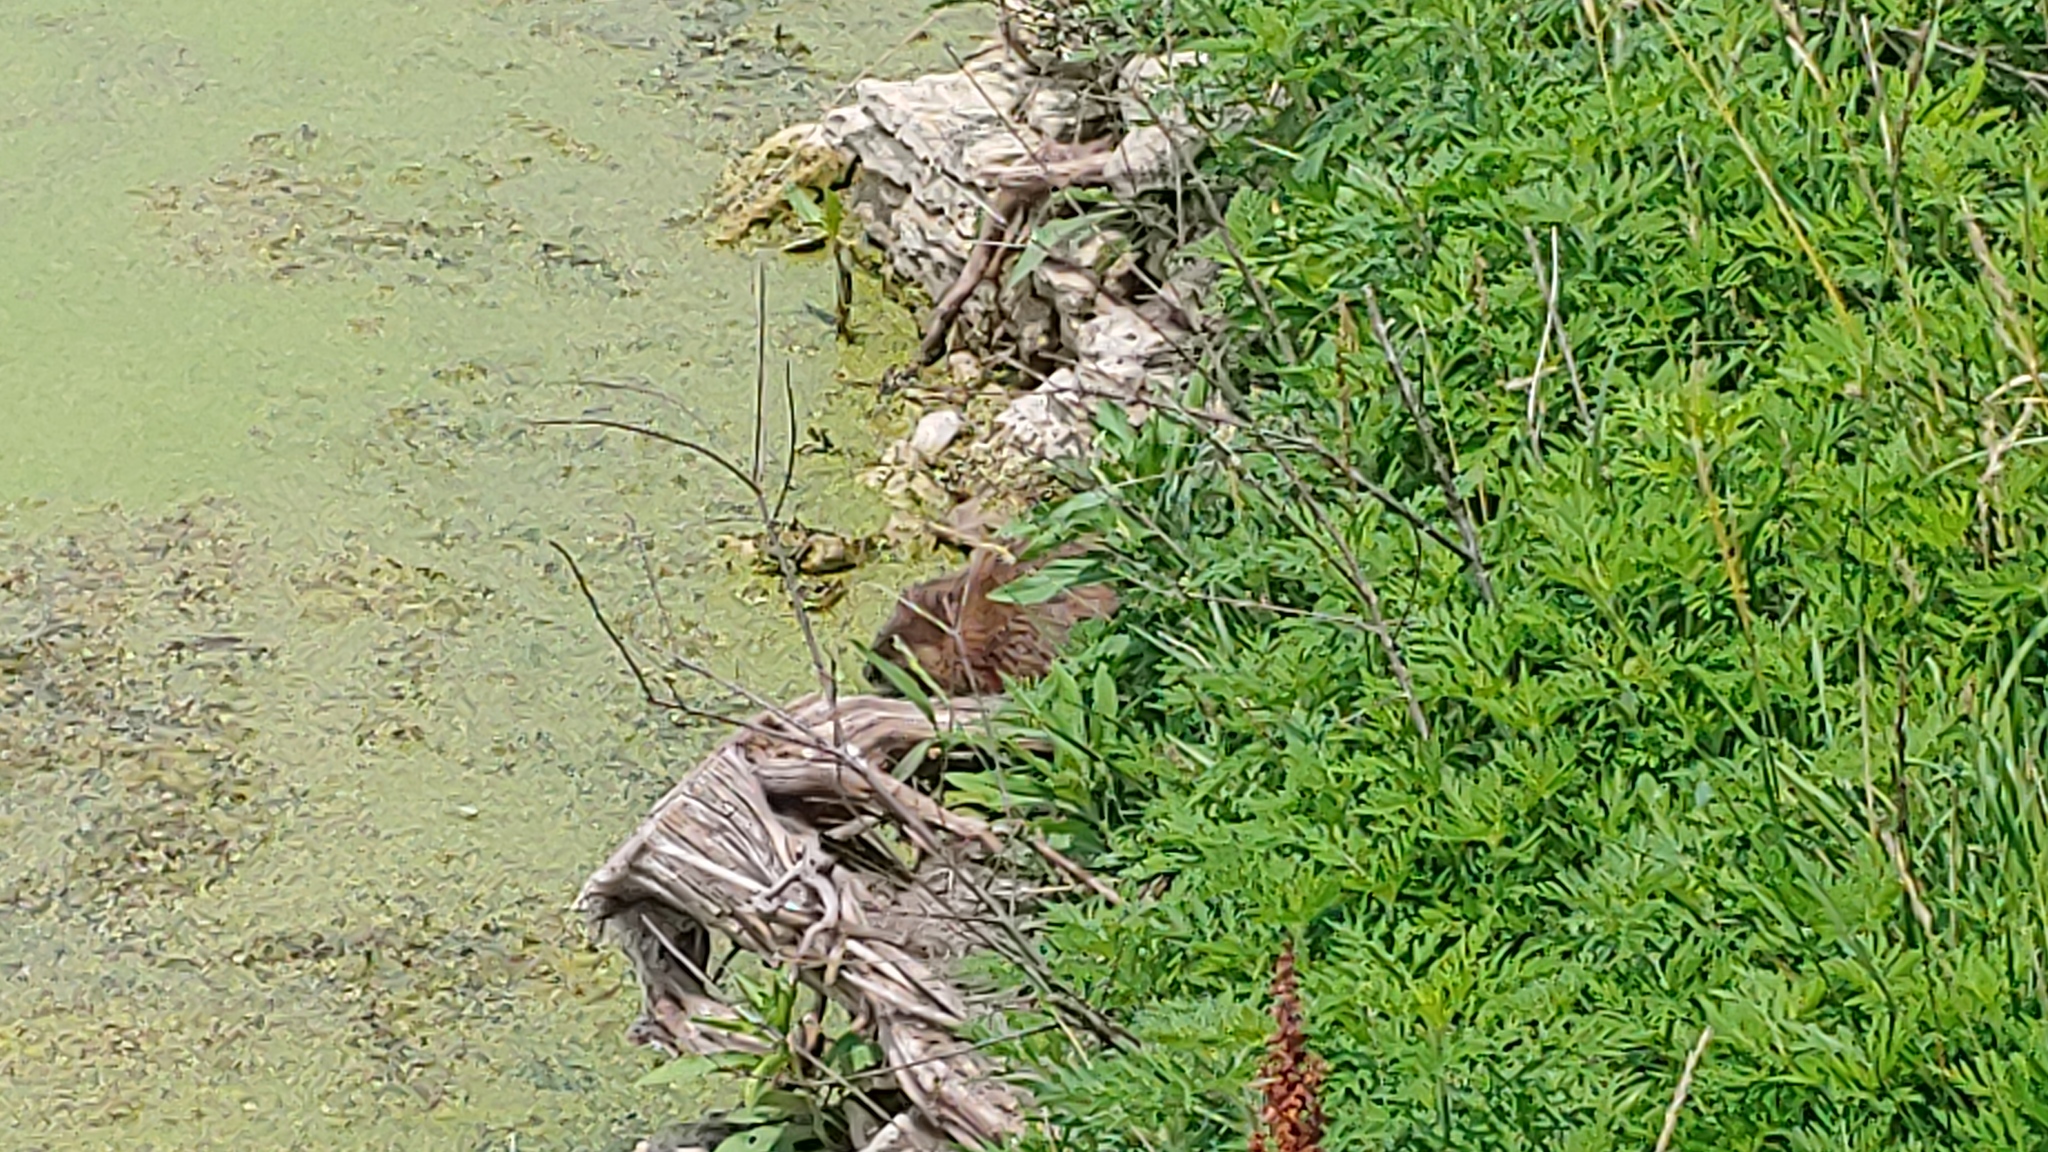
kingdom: Animalia
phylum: Chordata
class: Mammalia
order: Rodentia
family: Cricetidae
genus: Ondatra
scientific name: Ondatra zibethicus
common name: Muskrat
